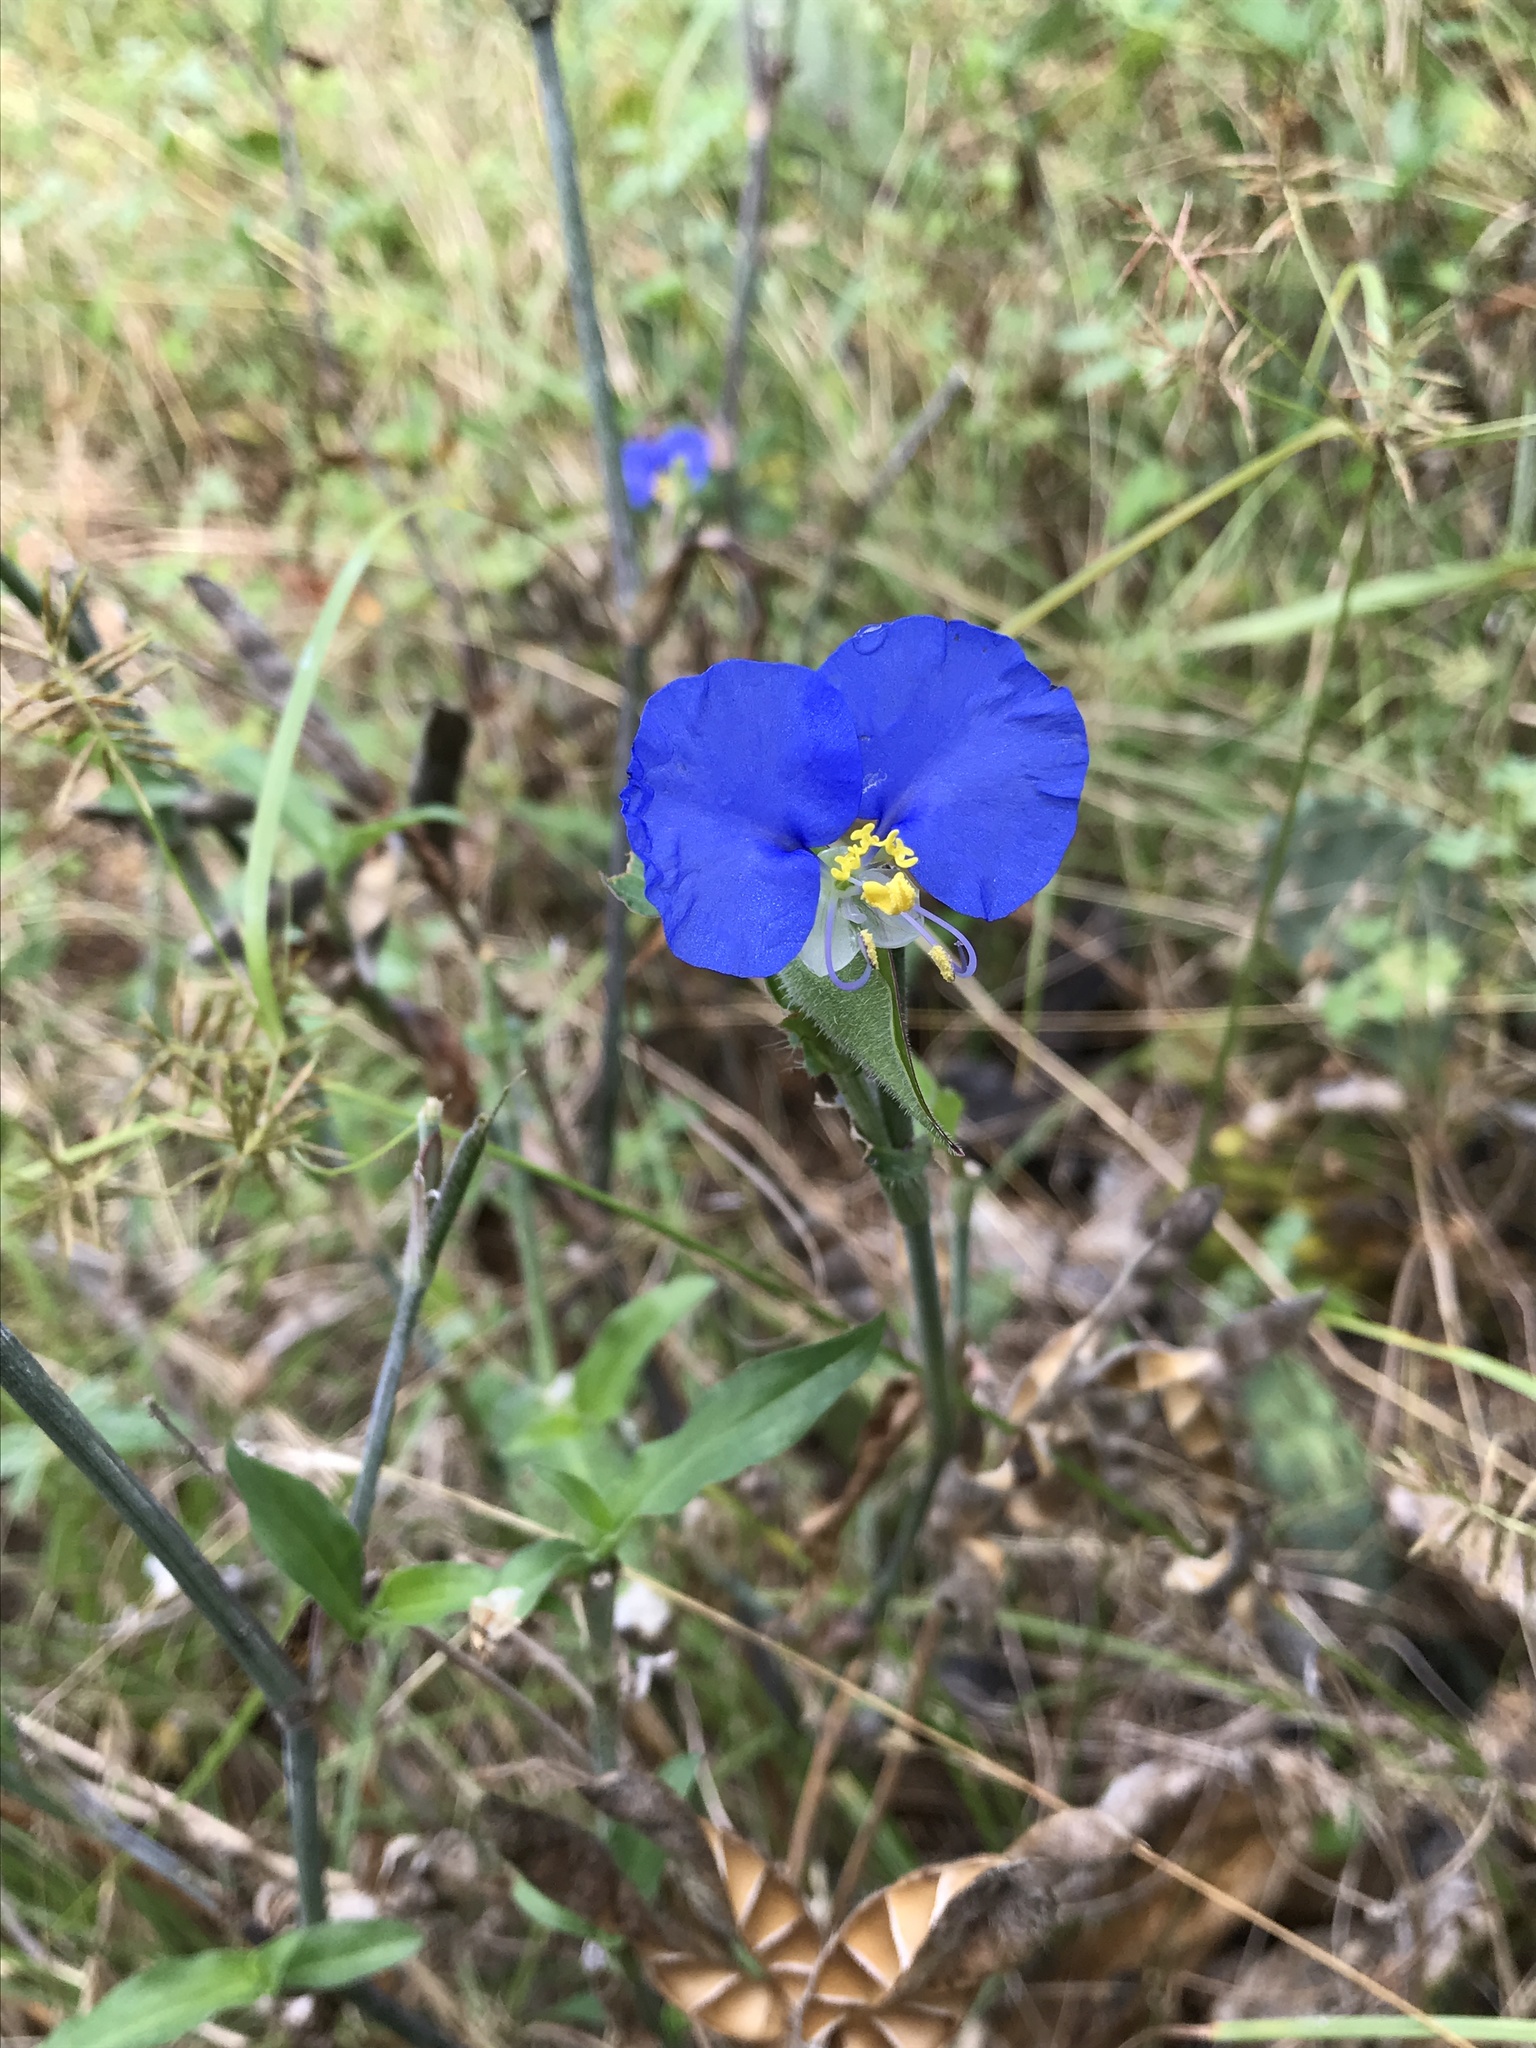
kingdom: Plantae
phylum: Tracheophyta
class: Liliopsida
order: Commelinales
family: Commelinaceae
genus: Commelina
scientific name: Commelina erecta
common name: Blousel blommetjie
